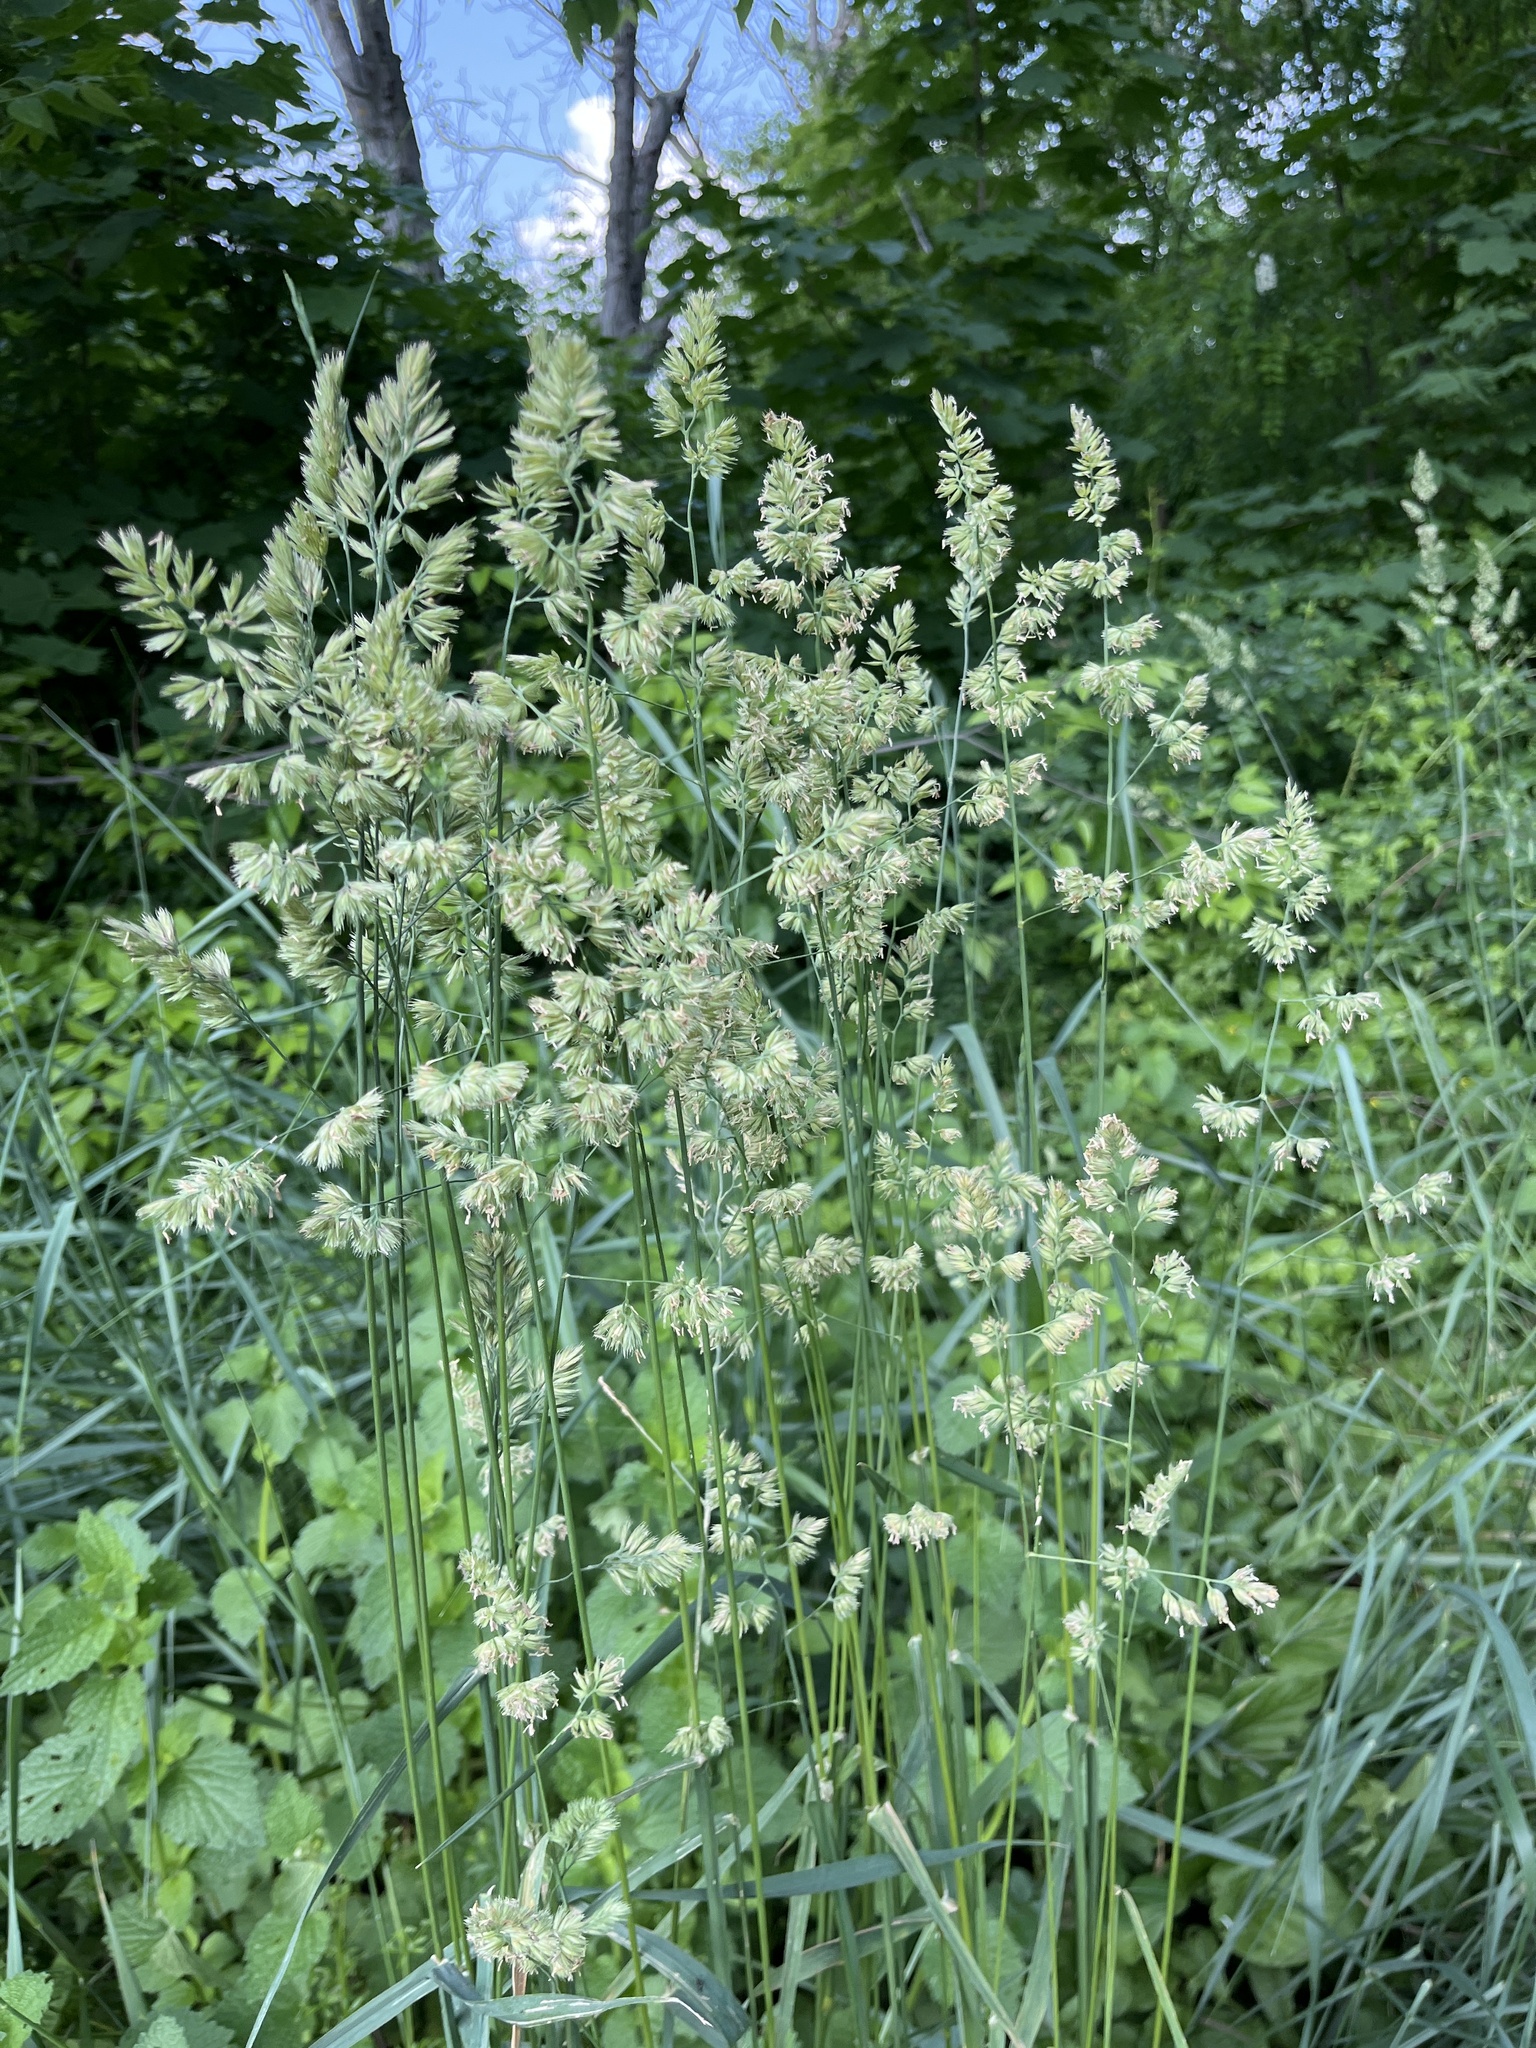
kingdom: Plantae
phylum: Tracheophyta
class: Liliopsida
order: Poales
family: Poaceae
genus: Dactylis
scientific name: Dactylis glomerata
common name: Orchardgrass
